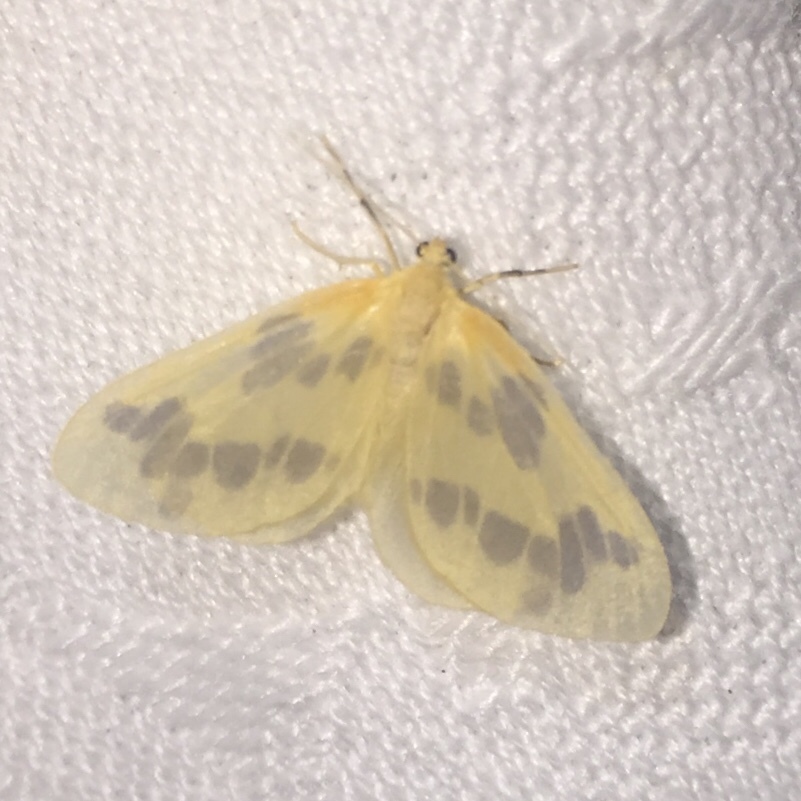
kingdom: Animalia
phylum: Arthropoda
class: Insecta
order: Lepidoptera
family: Geometridae
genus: Eubaphe
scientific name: Eubaphe mendica
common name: Beggar
